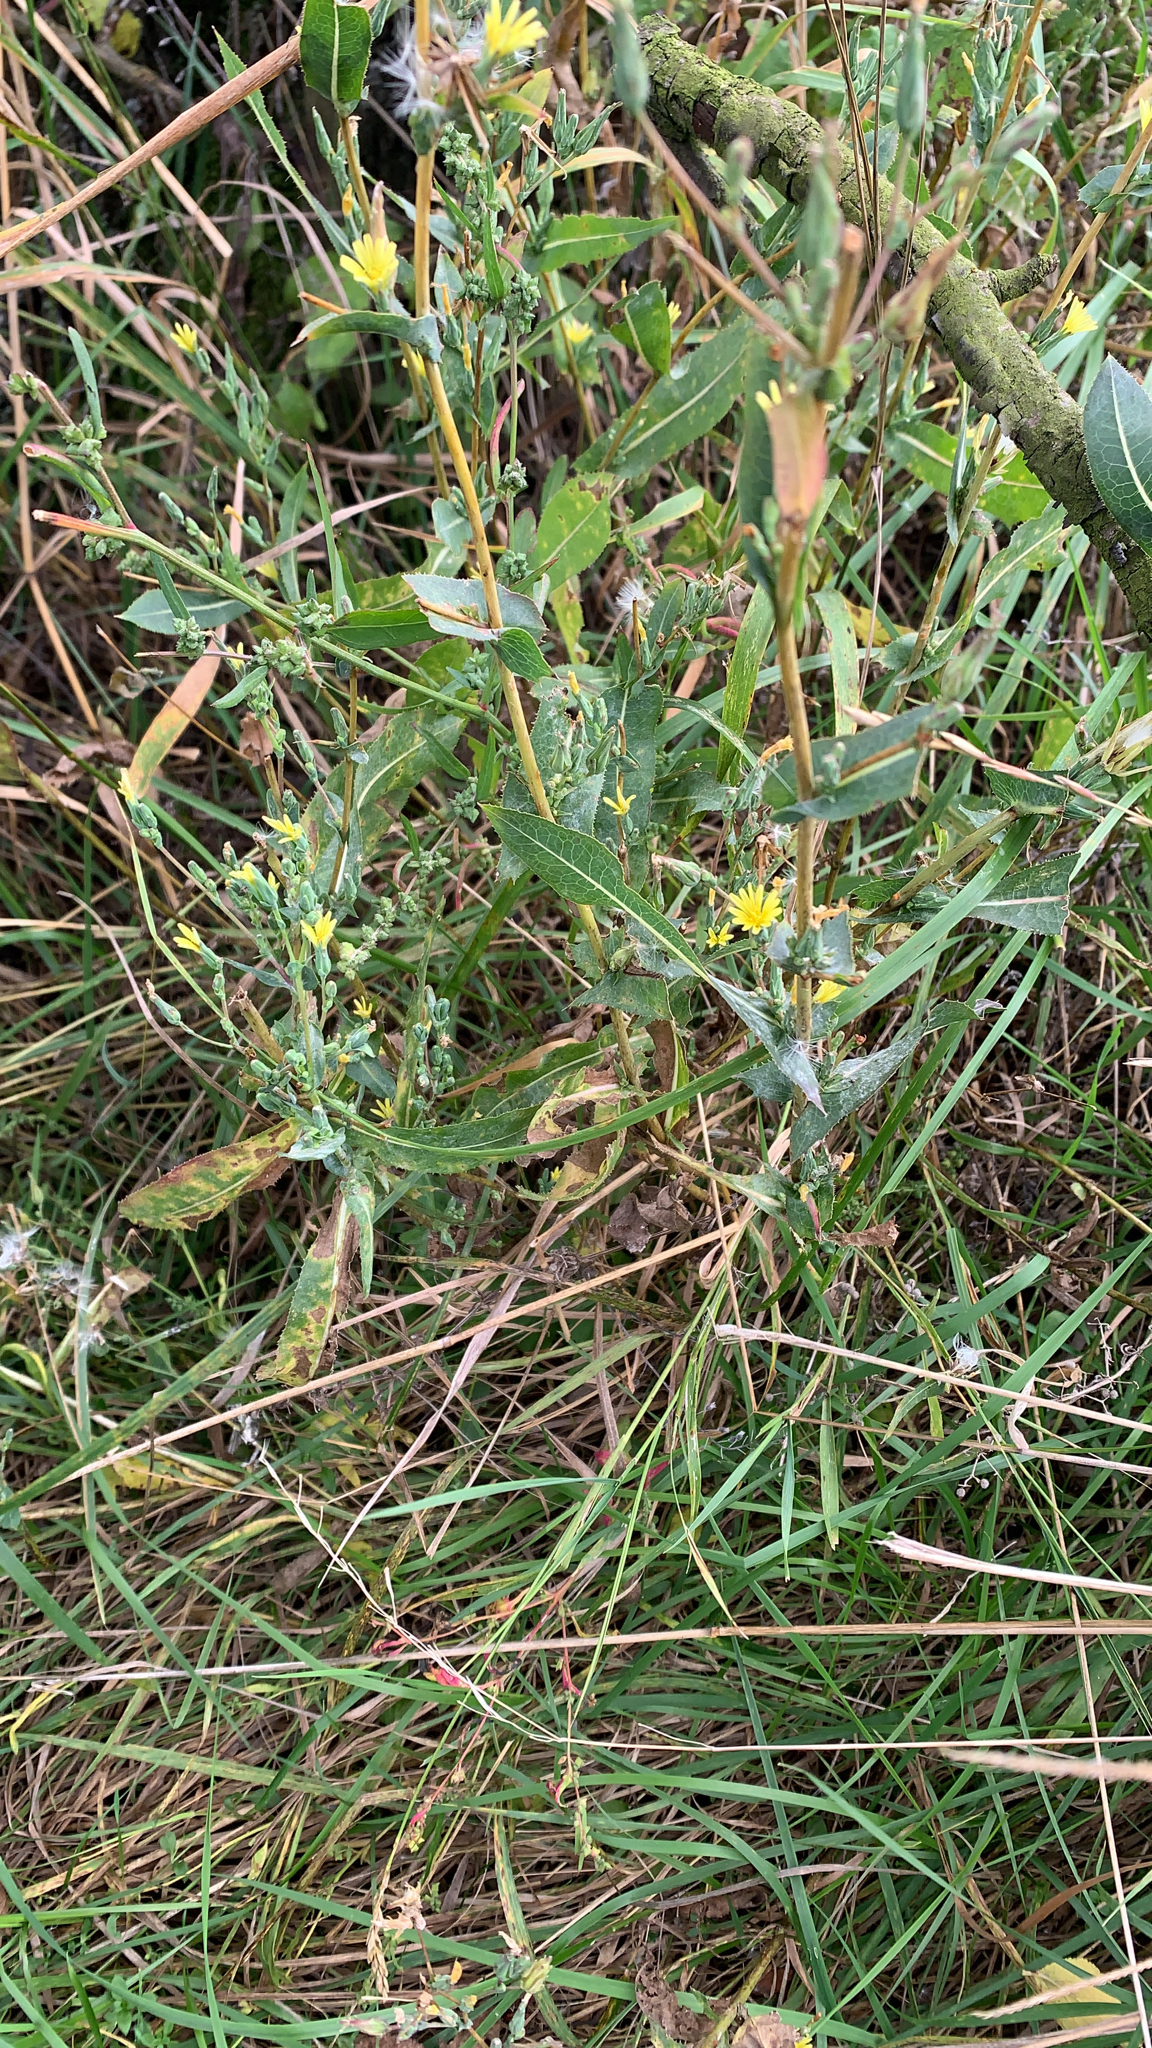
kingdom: Plantae
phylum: Tracheophyta
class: Magnoliopsida
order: Asterales
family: Asteraceae
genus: Lactuca
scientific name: Lactuca serriola
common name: Prickly lettuce
